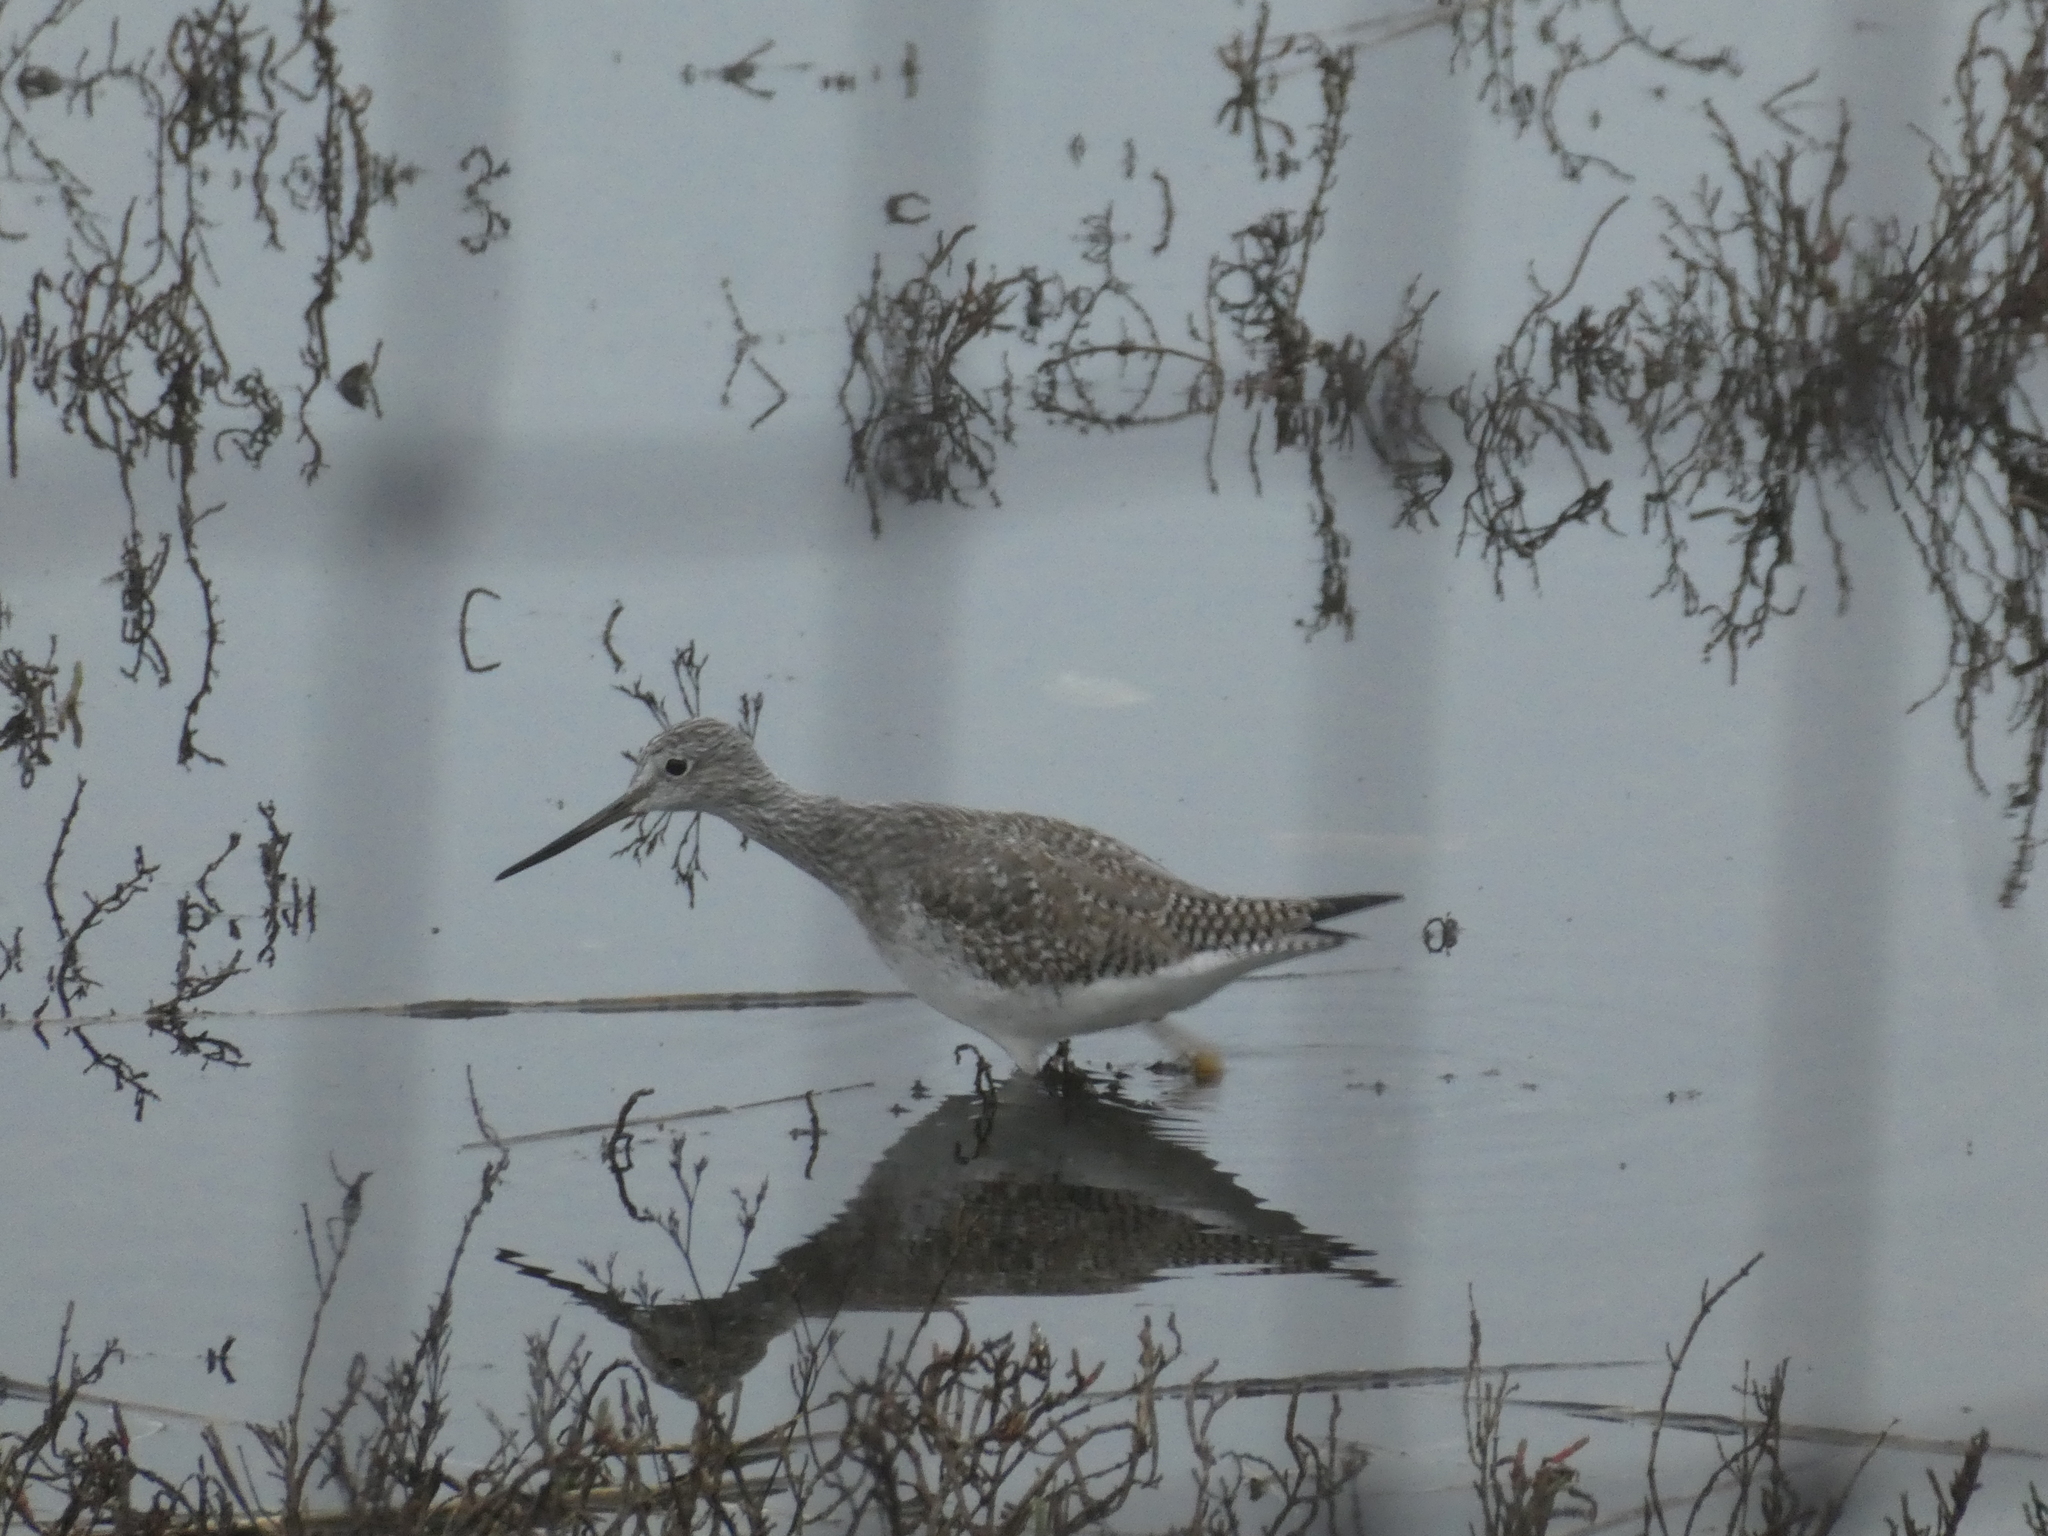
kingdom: Animalia
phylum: Chordata
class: Aves
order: Charadriiformes
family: Scolopacidae
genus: Tringa
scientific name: Tringa melanoleuca
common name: Greater yellowlegs
